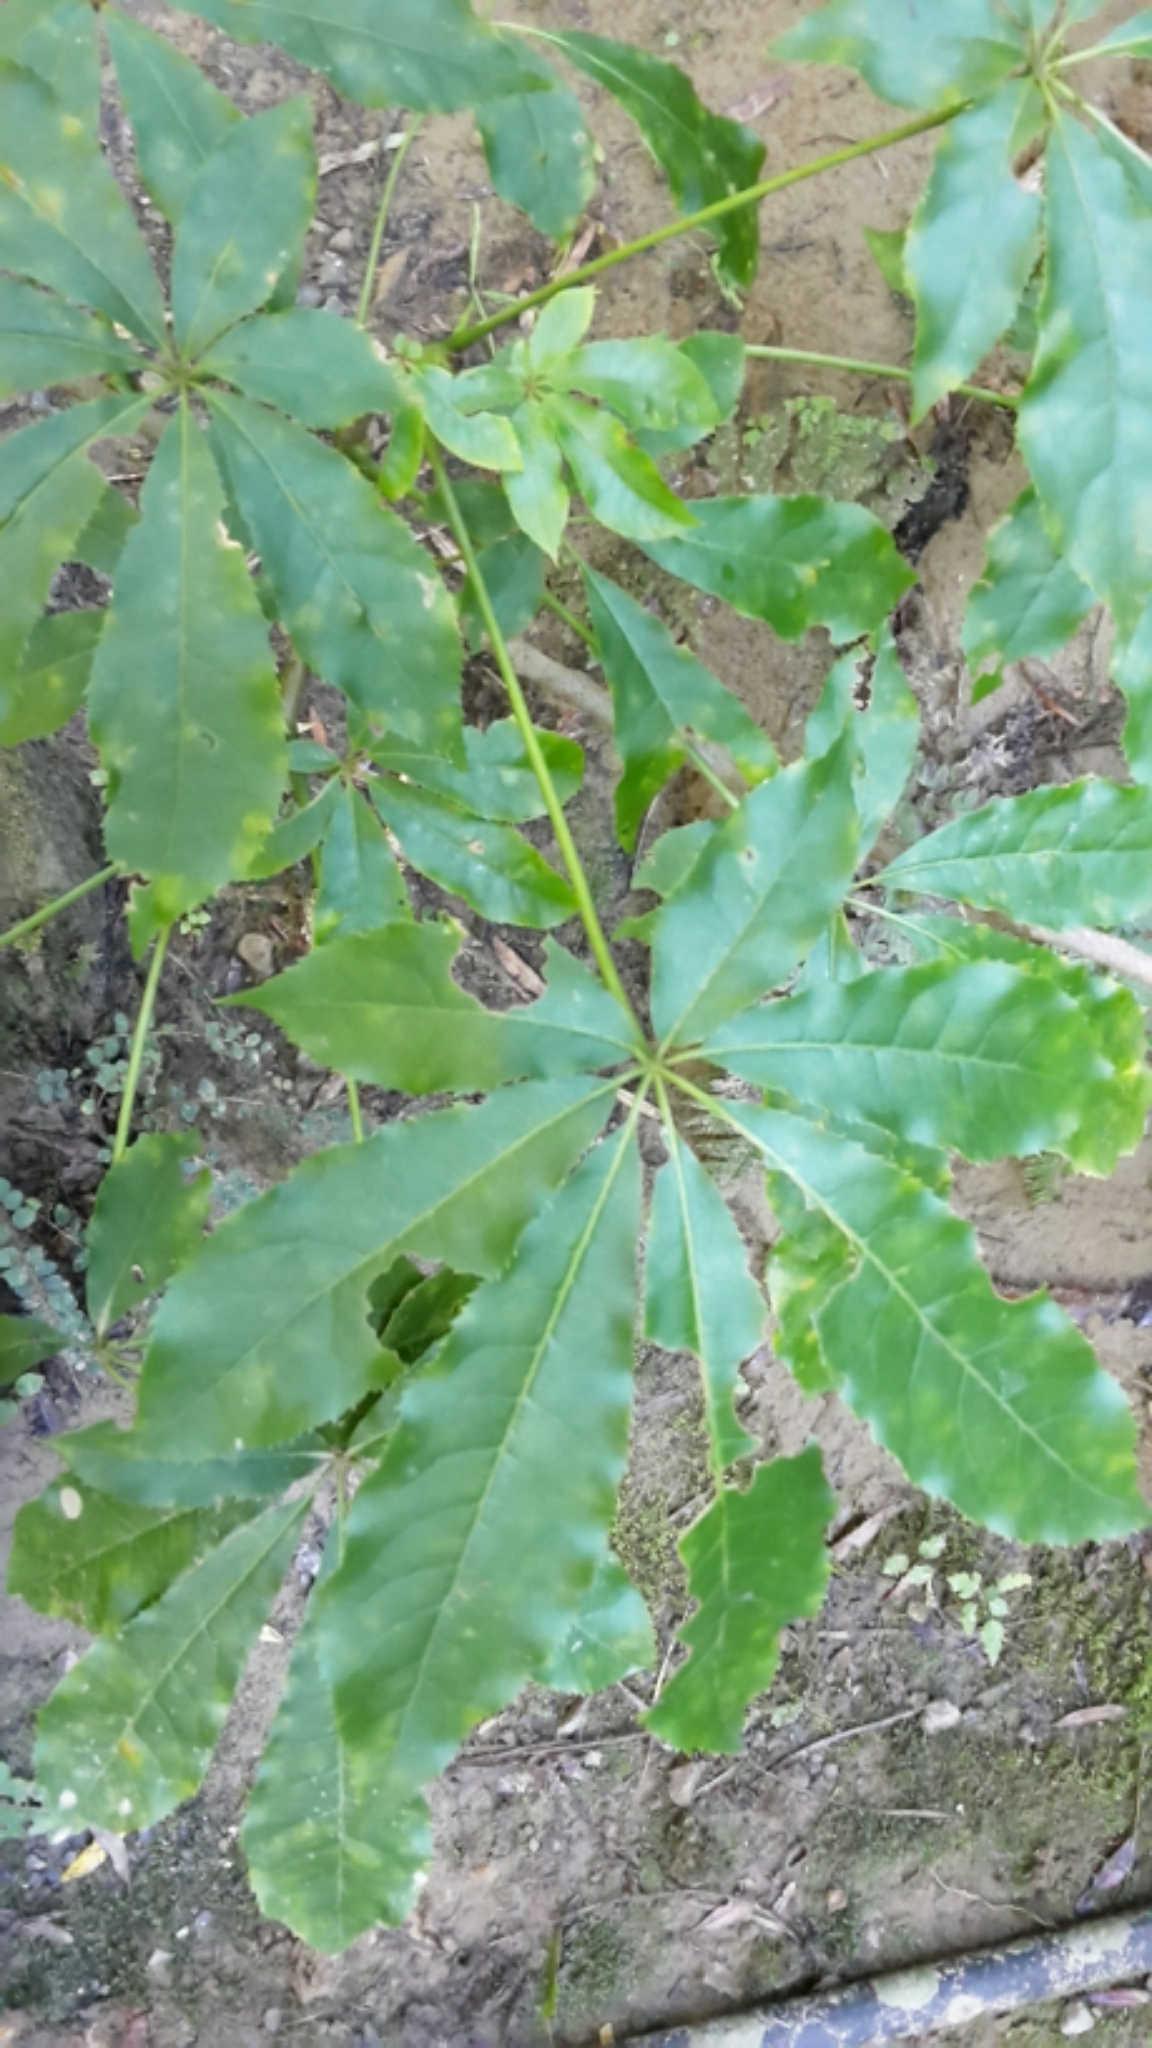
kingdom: Plantae
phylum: Tracheophyta
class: Magnoliopsida
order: Apiales
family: Araliaceae
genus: Schefflera
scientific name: Schefflera digitata
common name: Pate
